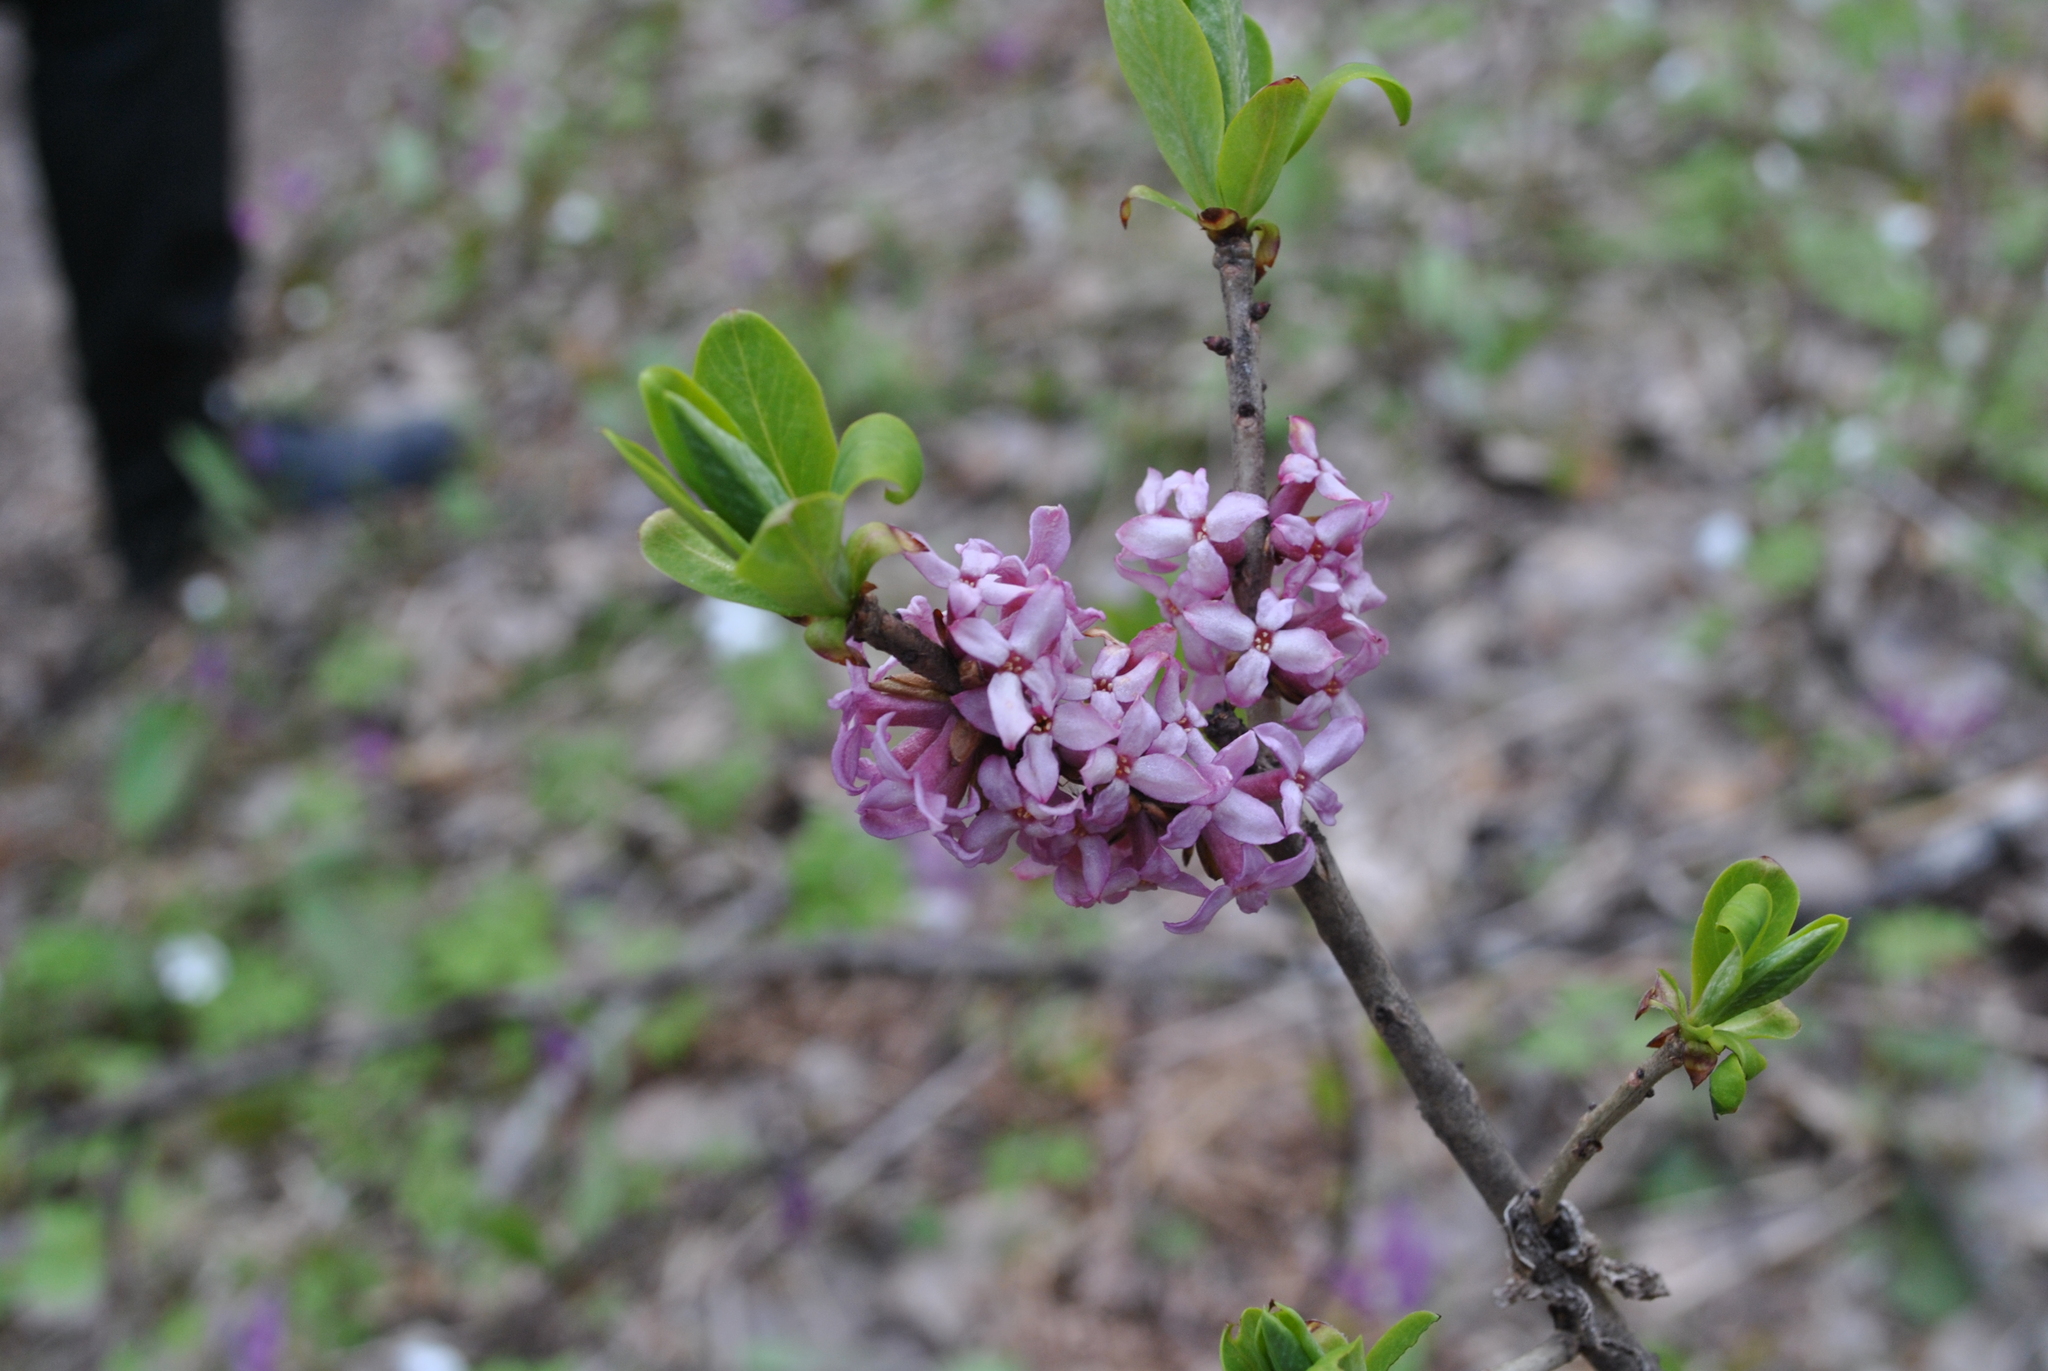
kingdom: Plantae
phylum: Tracheophyta
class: Magnoliopsida
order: Malvales
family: Thymelaeaceae
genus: Daphne
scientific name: Daphne mezereum
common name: Mezereon
